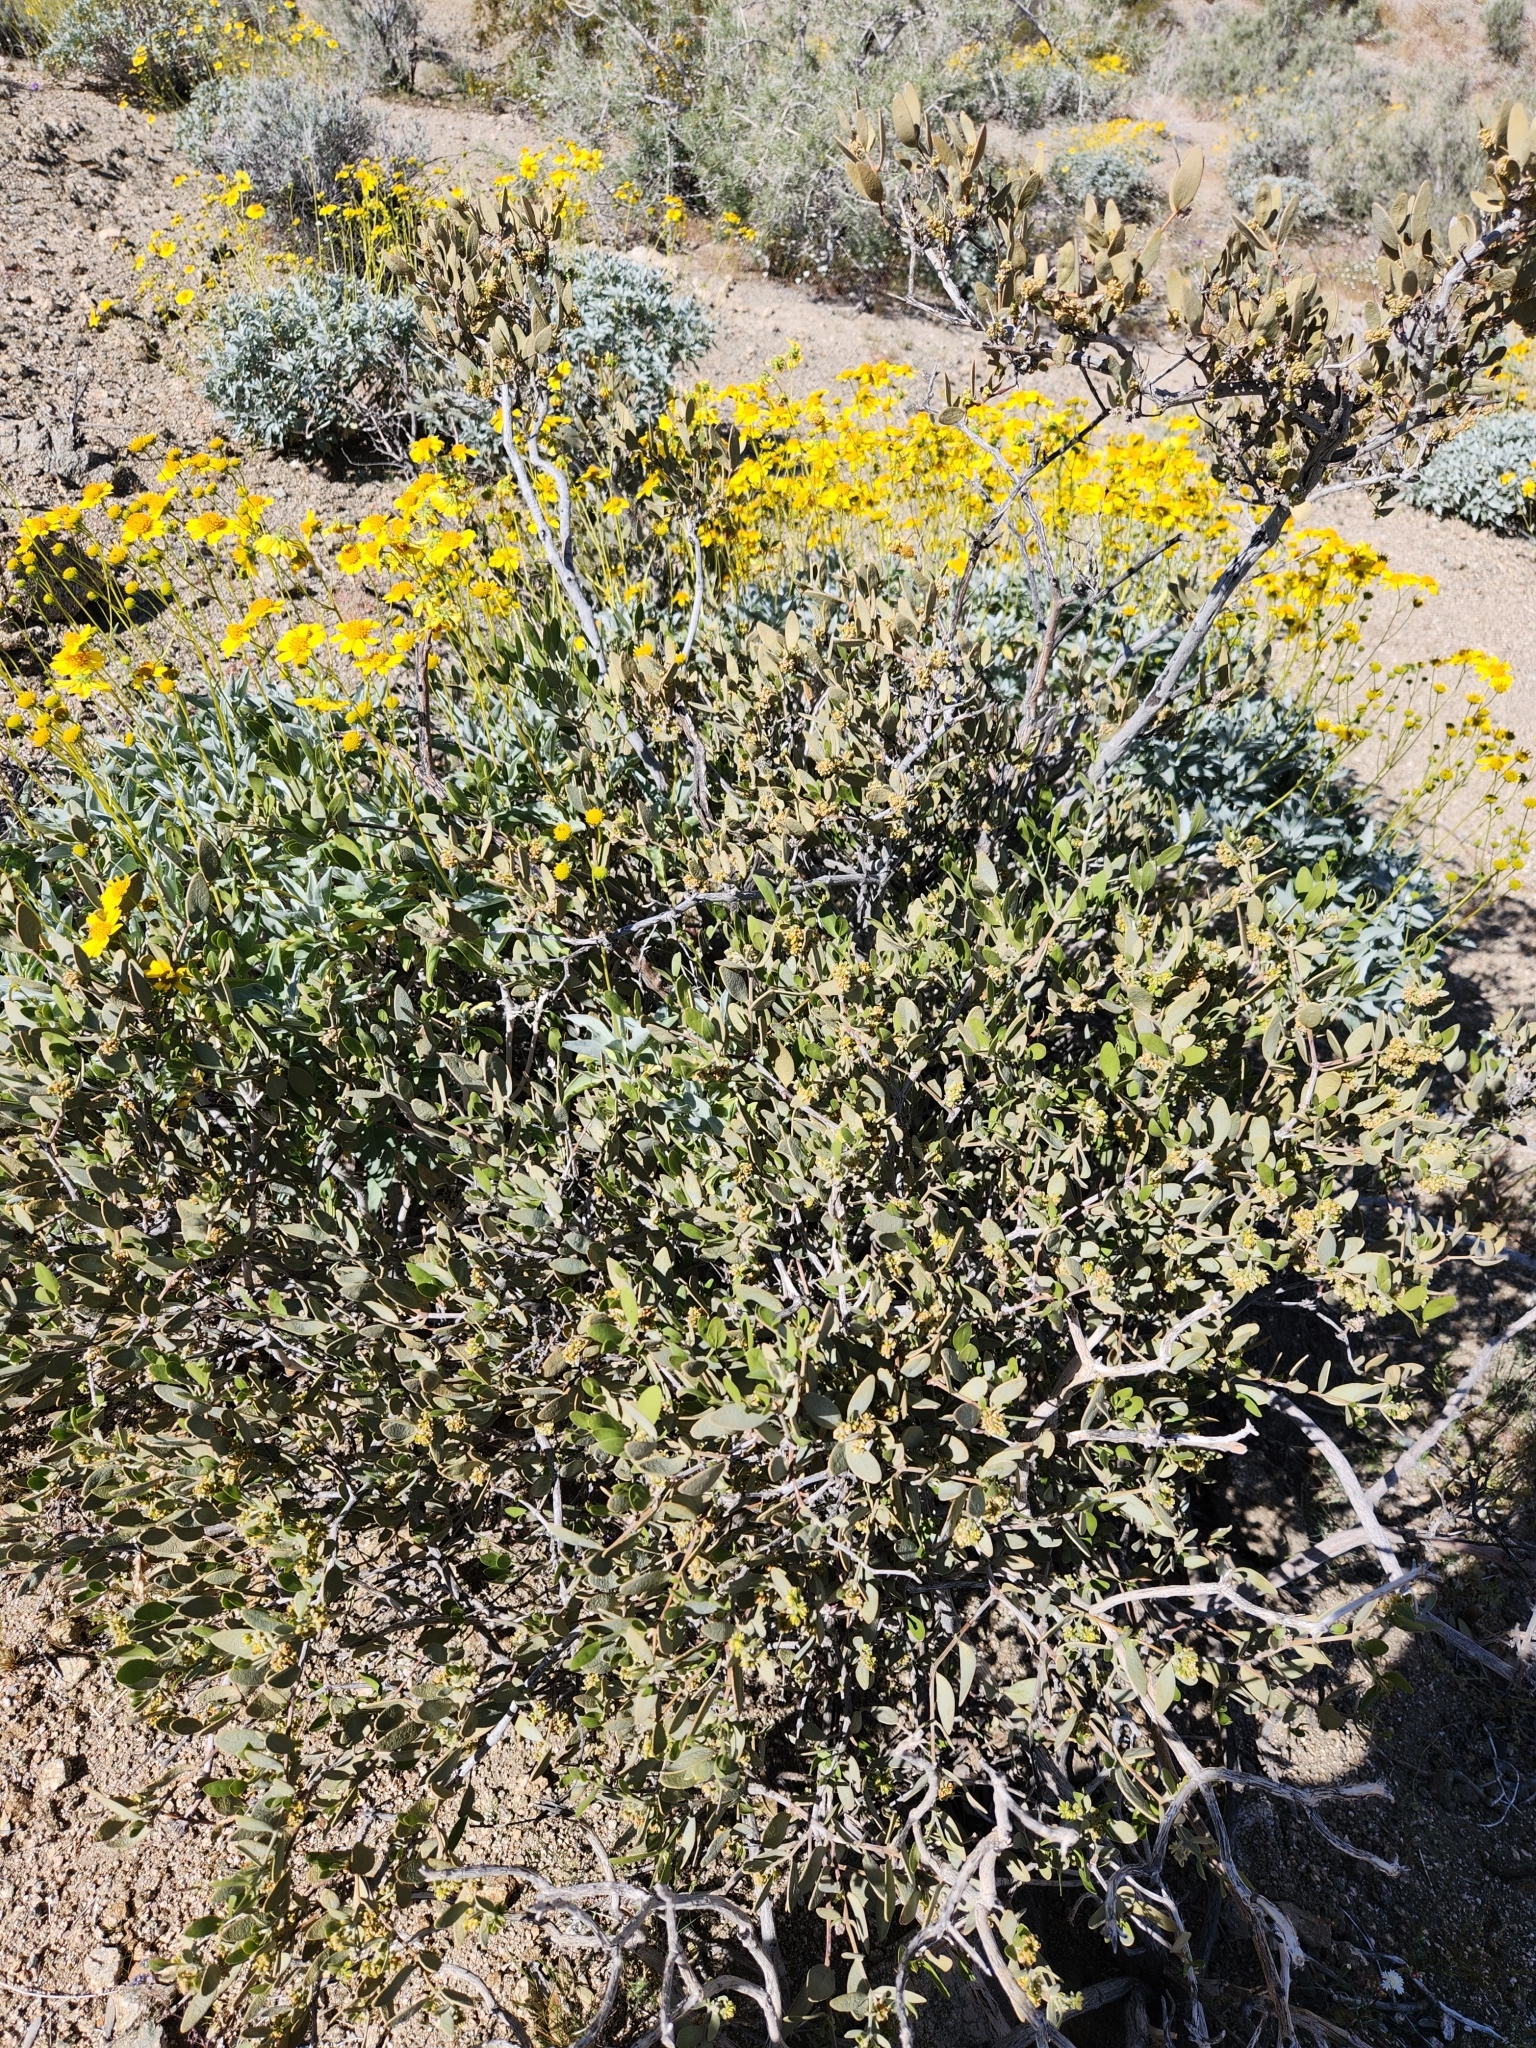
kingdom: Plantae
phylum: Tracheophyta
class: Magnoliopsida
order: Caryophyllales
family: Simmondsiaceae
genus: Simmondsia
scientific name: Simmondsia chinensis
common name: Jojoba
